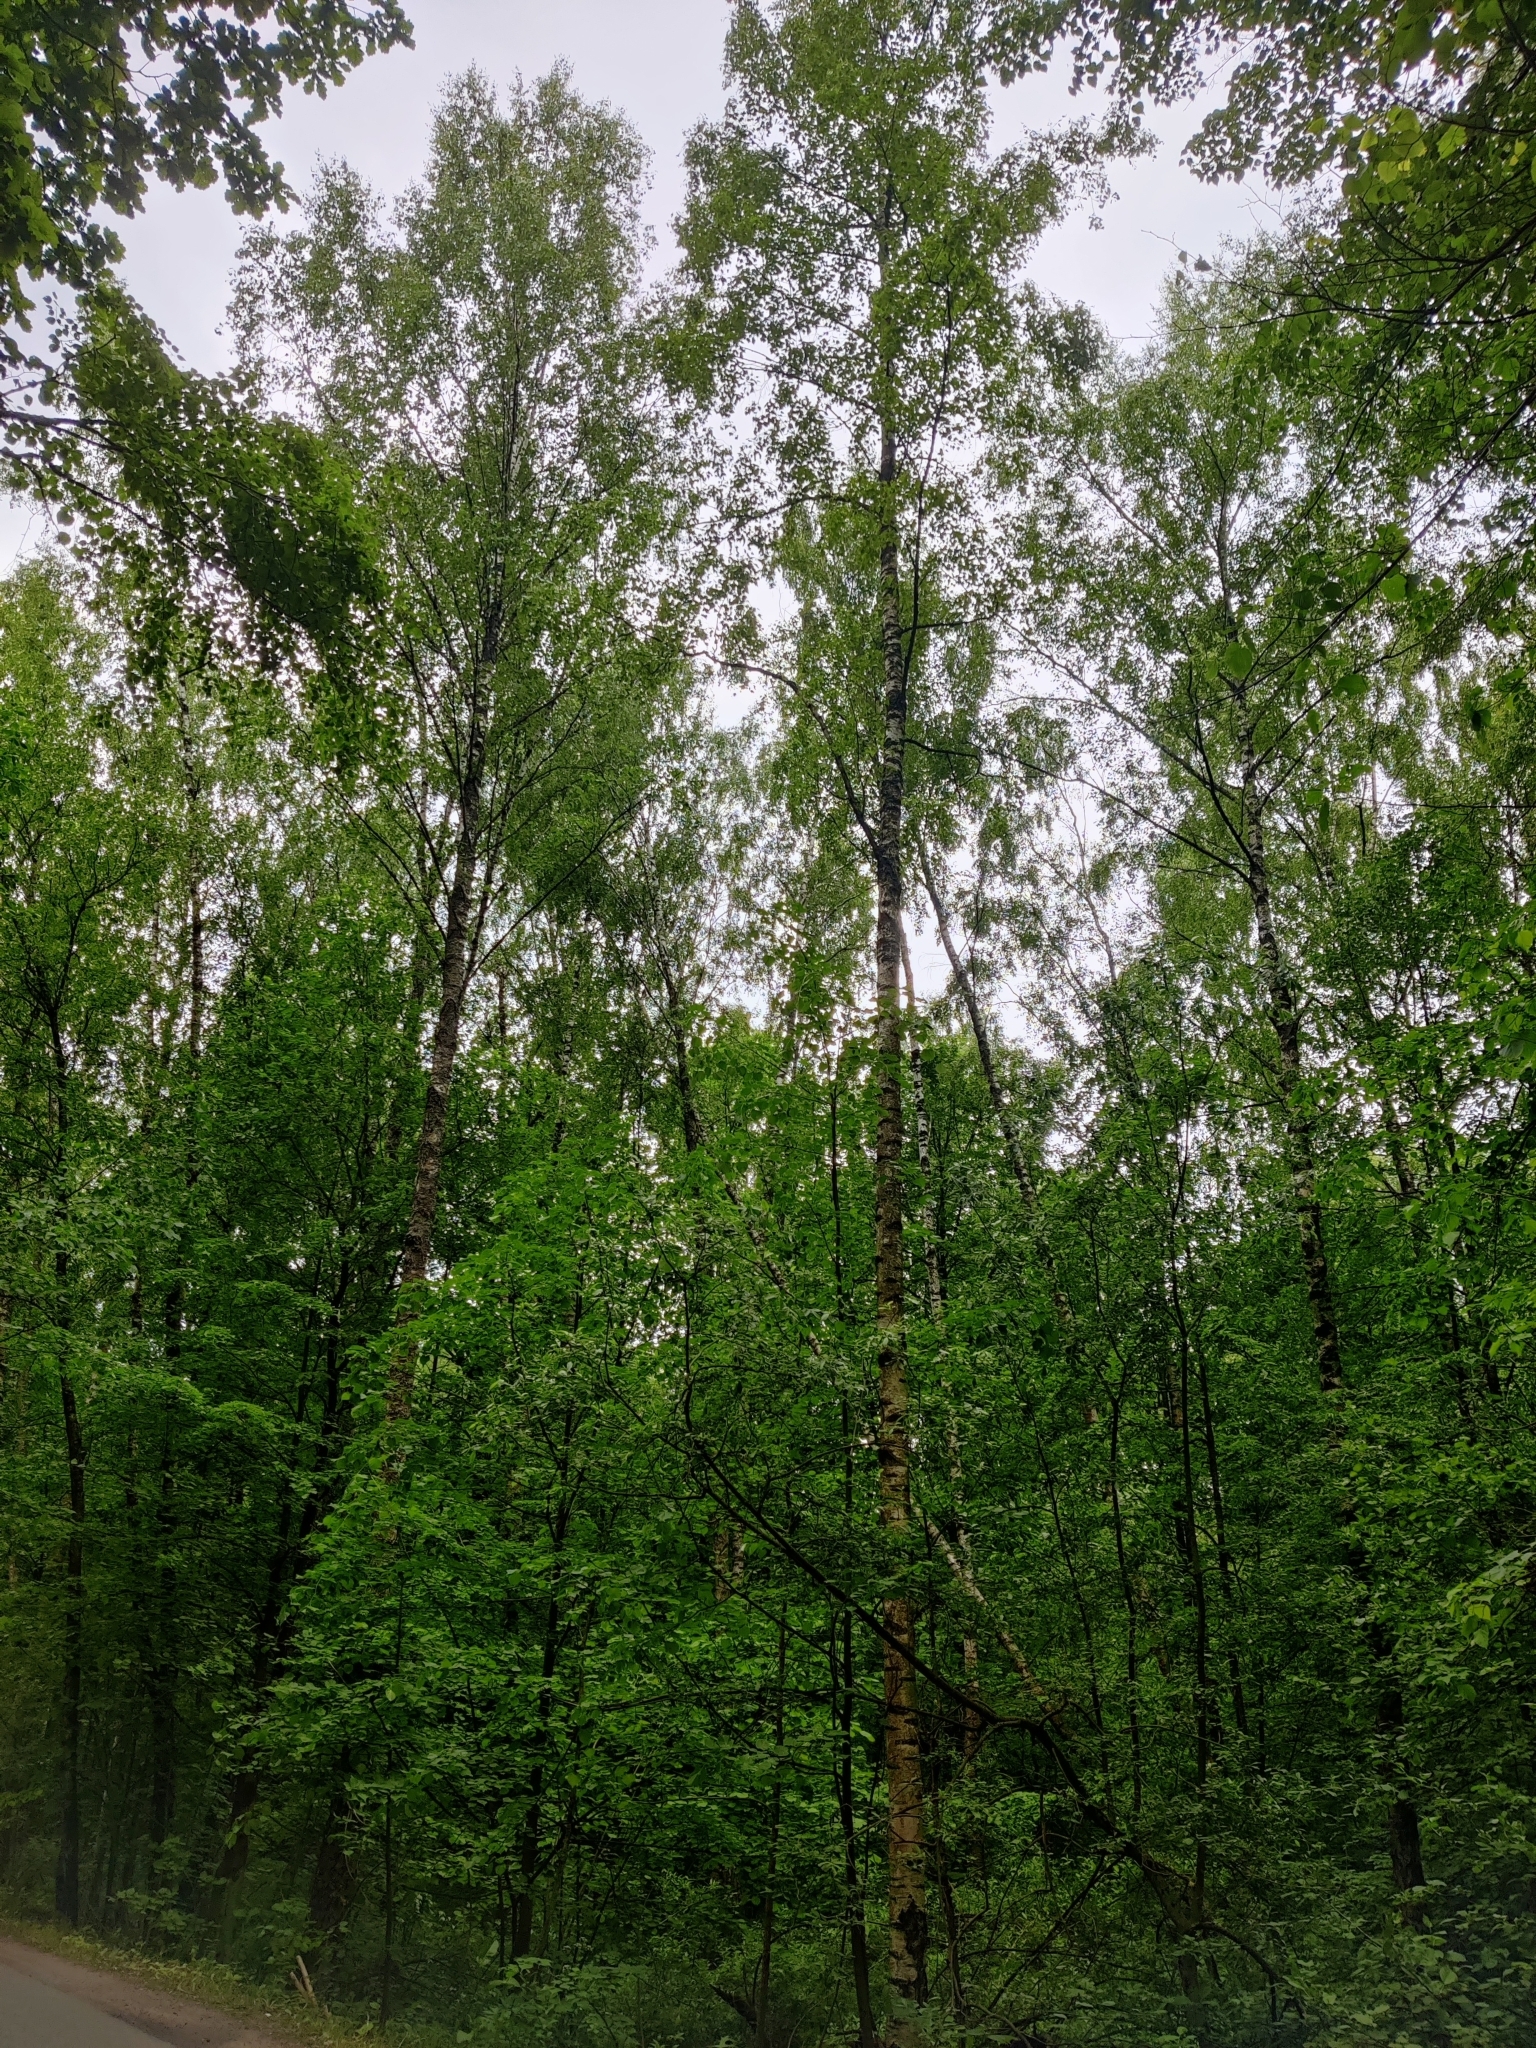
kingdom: Plantae
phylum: Tracheophyta
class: Magnoliopsida
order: Fagales
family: Betulaceae
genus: Betula
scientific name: Betula pendula
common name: Silver birch
